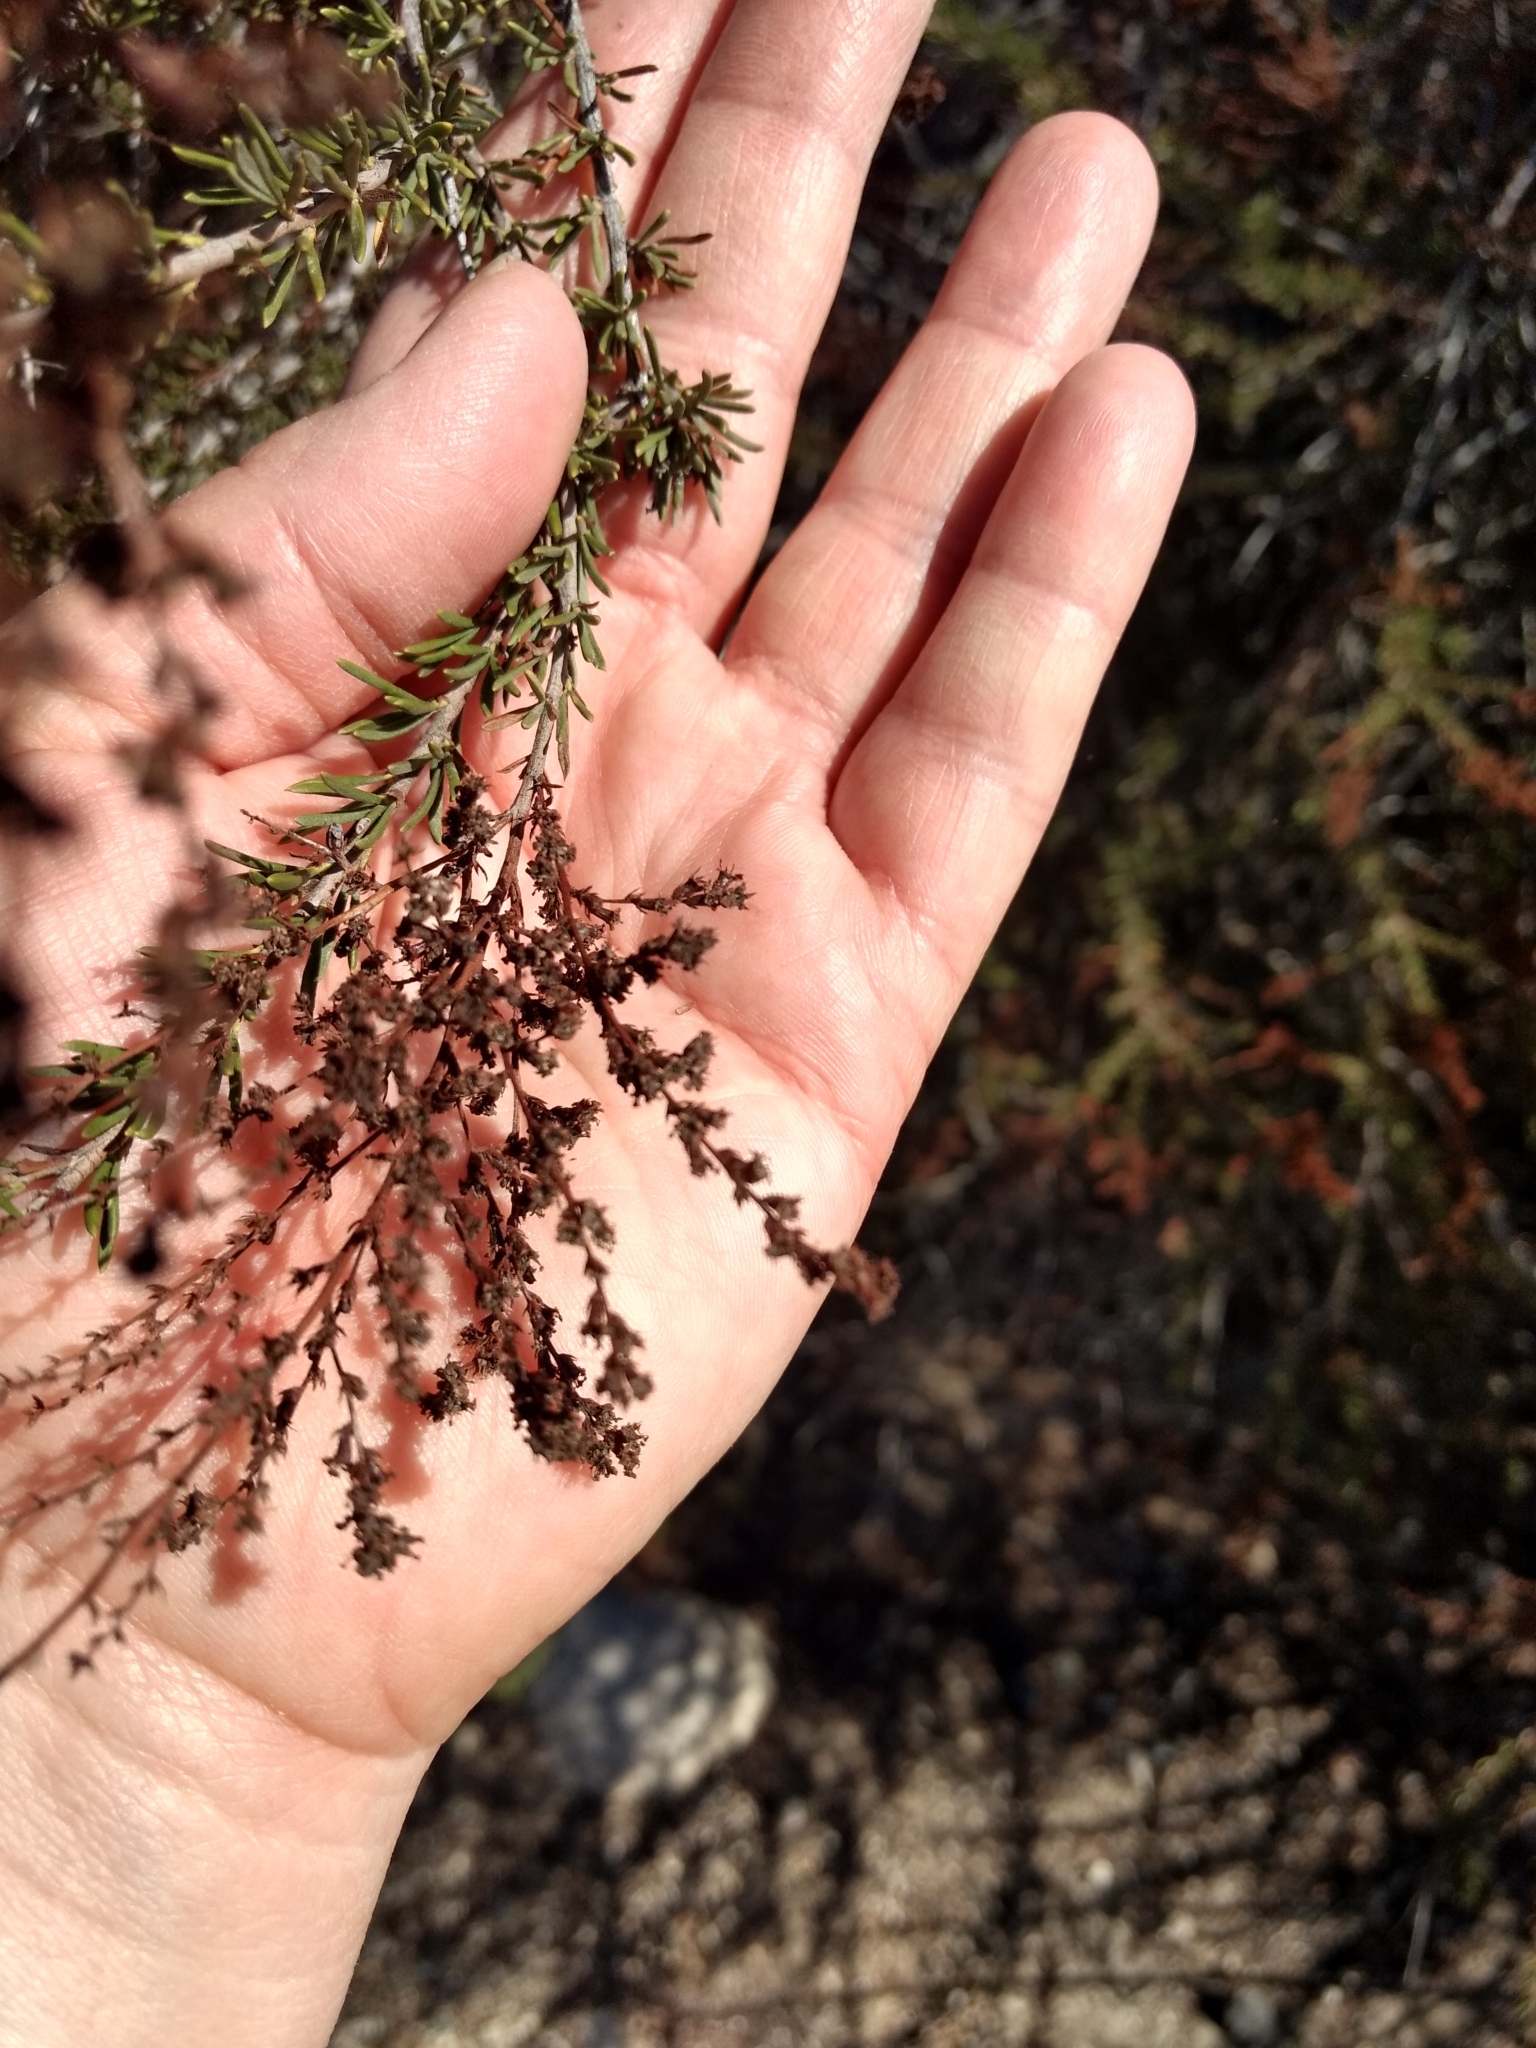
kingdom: Plantae
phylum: Tracheophyta
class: Magnoliopsida
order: Rosales
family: Rosaceae
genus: Adenostoma
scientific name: Adenostoma fasciculatum
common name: Chamise
